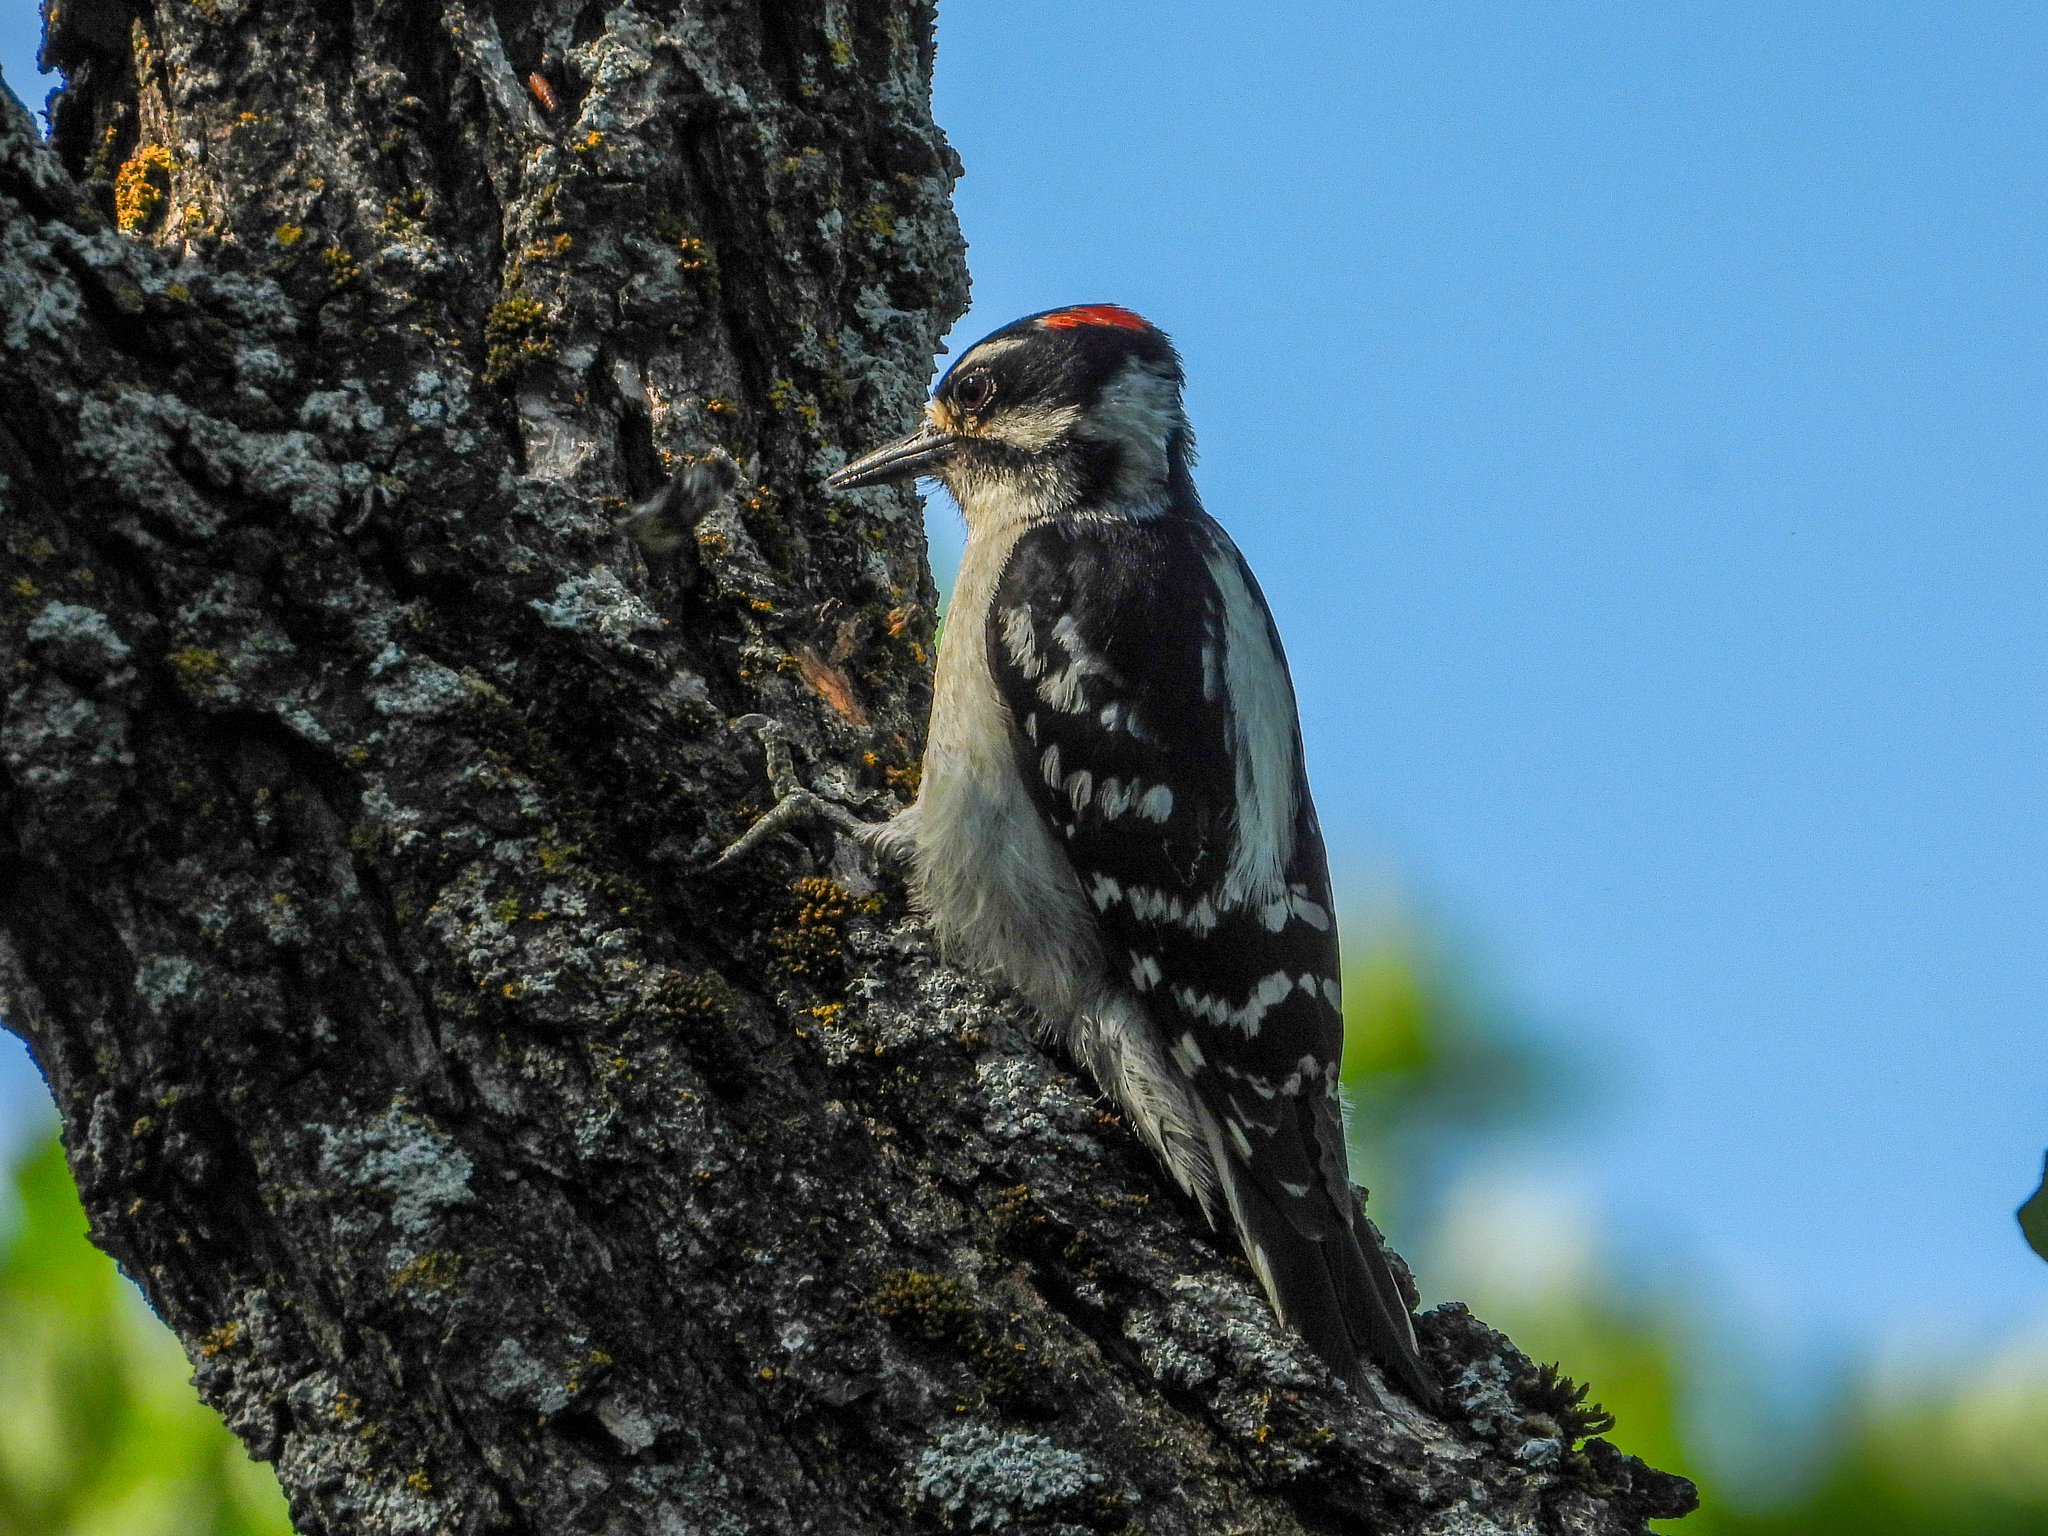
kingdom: Animalia
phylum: Chordata
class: Aves
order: Piciformes
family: Picidae
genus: Dryobates
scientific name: Dryobates pubescens
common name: Downy woodpecker
